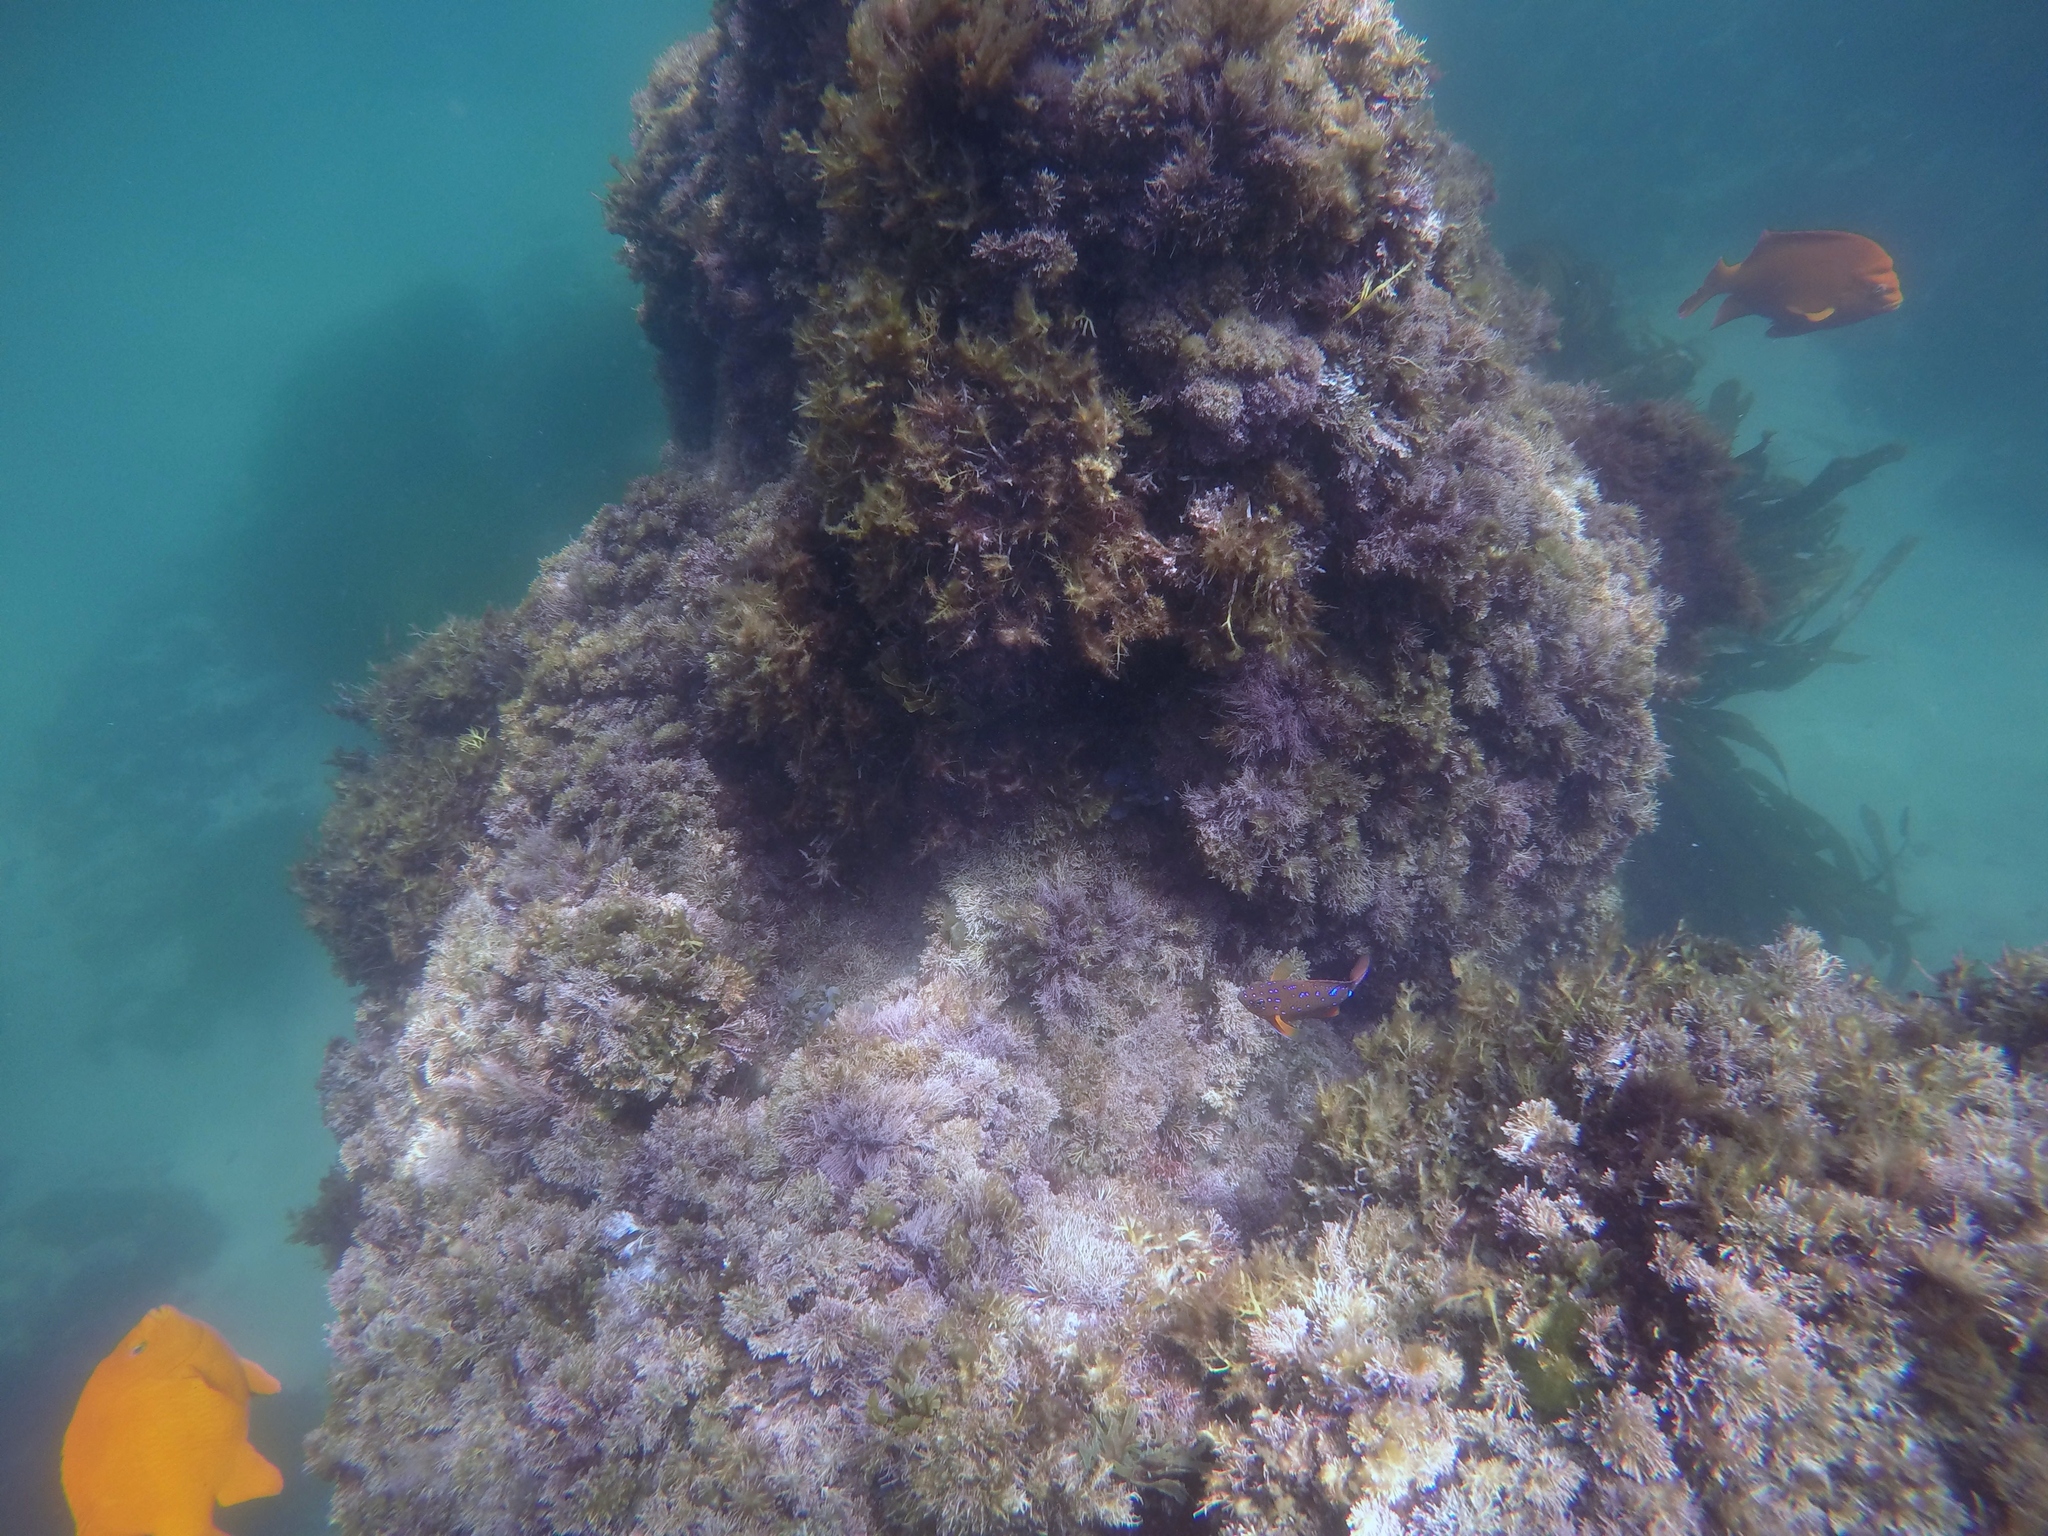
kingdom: Animalia
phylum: Chordata
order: Perciformes
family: Pomacentridae
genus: Hypsypops
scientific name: Hypsypops rubicundus
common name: Garibaldi
